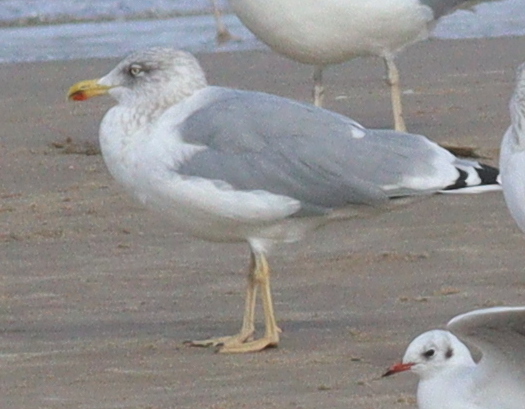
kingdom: Animalia
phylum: Chordata
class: Aves
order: Charadriiformes
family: Laridae
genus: Larus
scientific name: Larus
